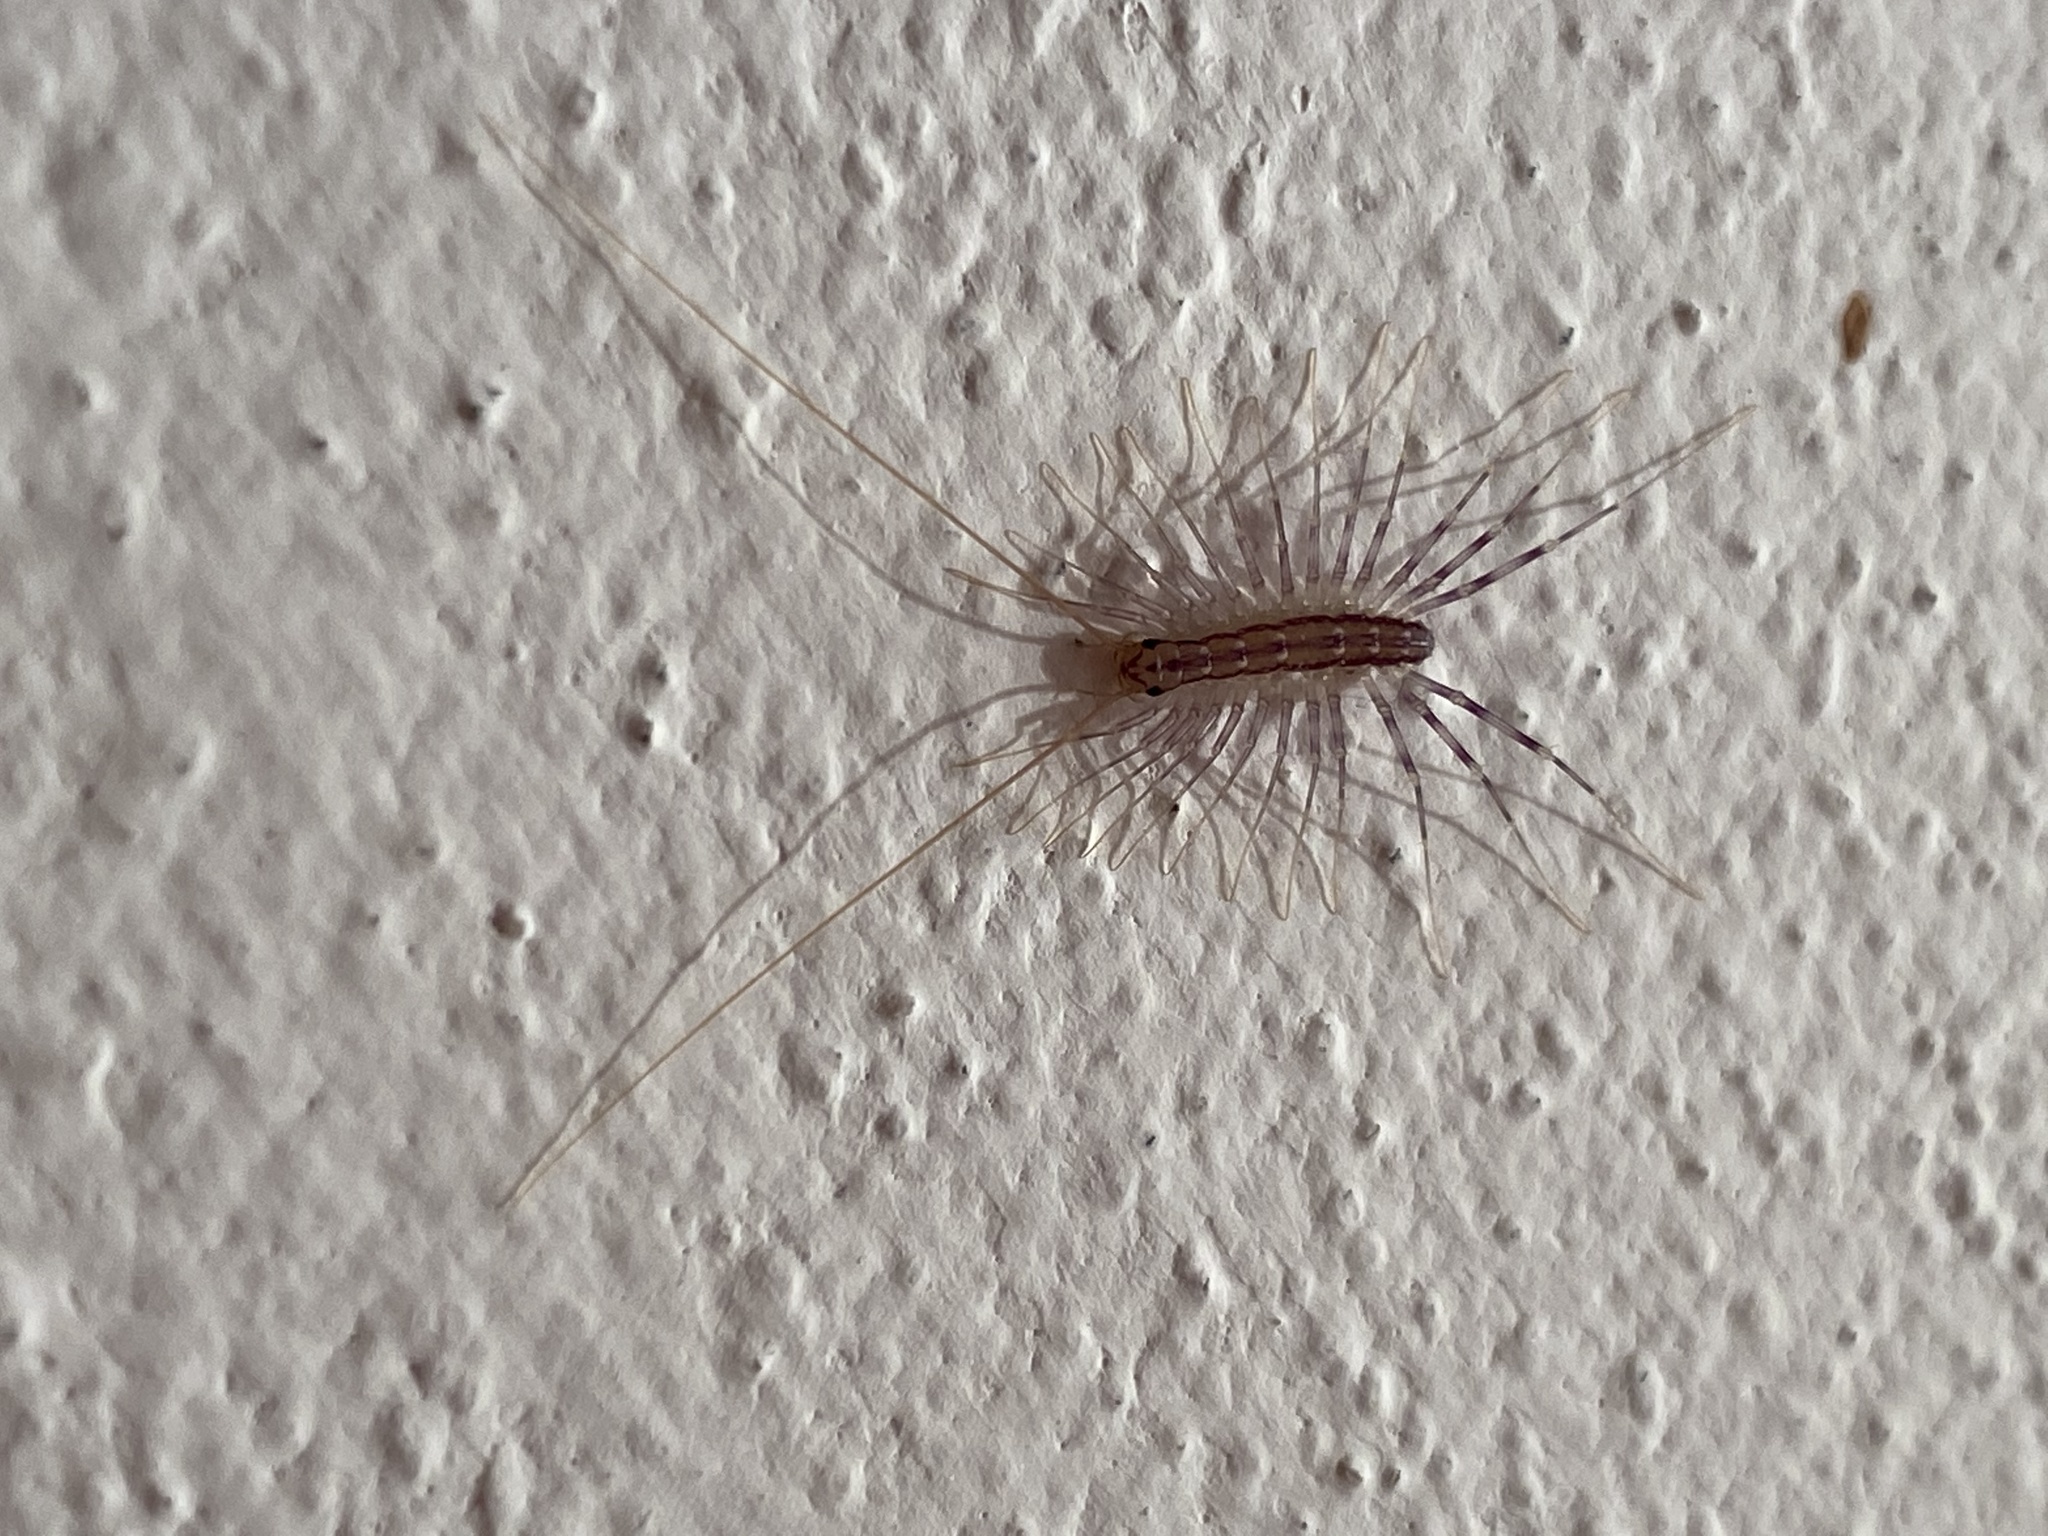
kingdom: Animalia
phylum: Arthropoda
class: Chilopoda
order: Scutigeromorpha
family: Scutigeridae
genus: Scutigera
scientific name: Scutigera coleoptrata
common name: House centipede
